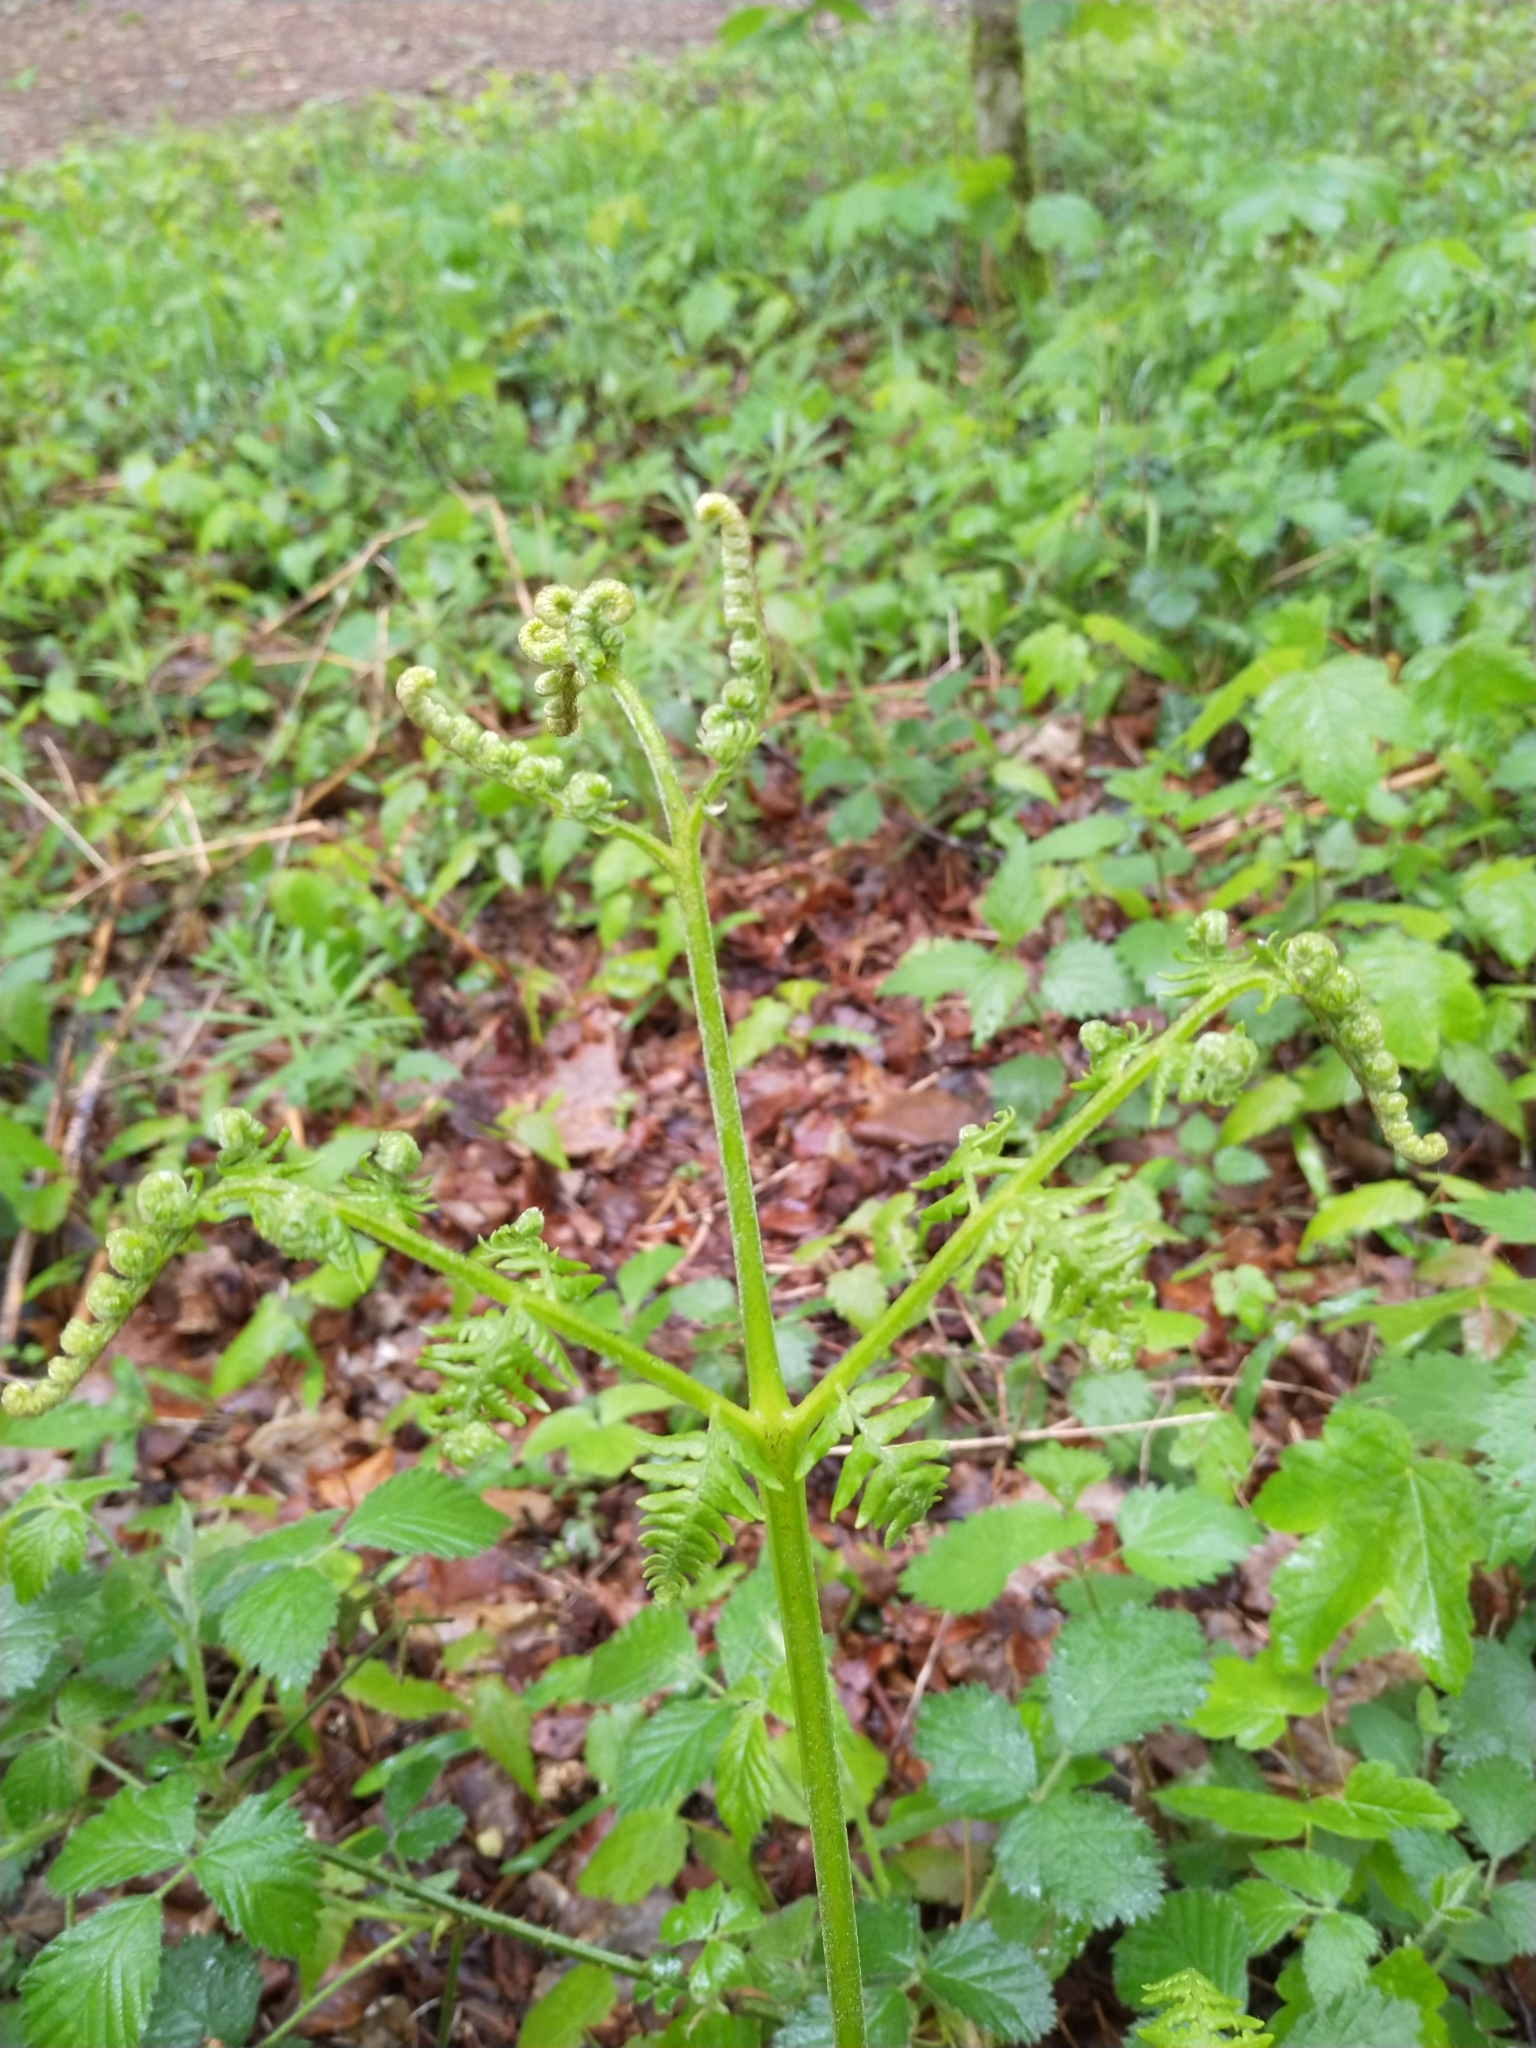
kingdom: Plantae
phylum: Tracheophyta
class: Polypodiopsida
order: Polypodiales
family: Dennstaedtiaceae
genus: Pteridium
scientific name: Pteridium aquilinum
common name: Bracken
